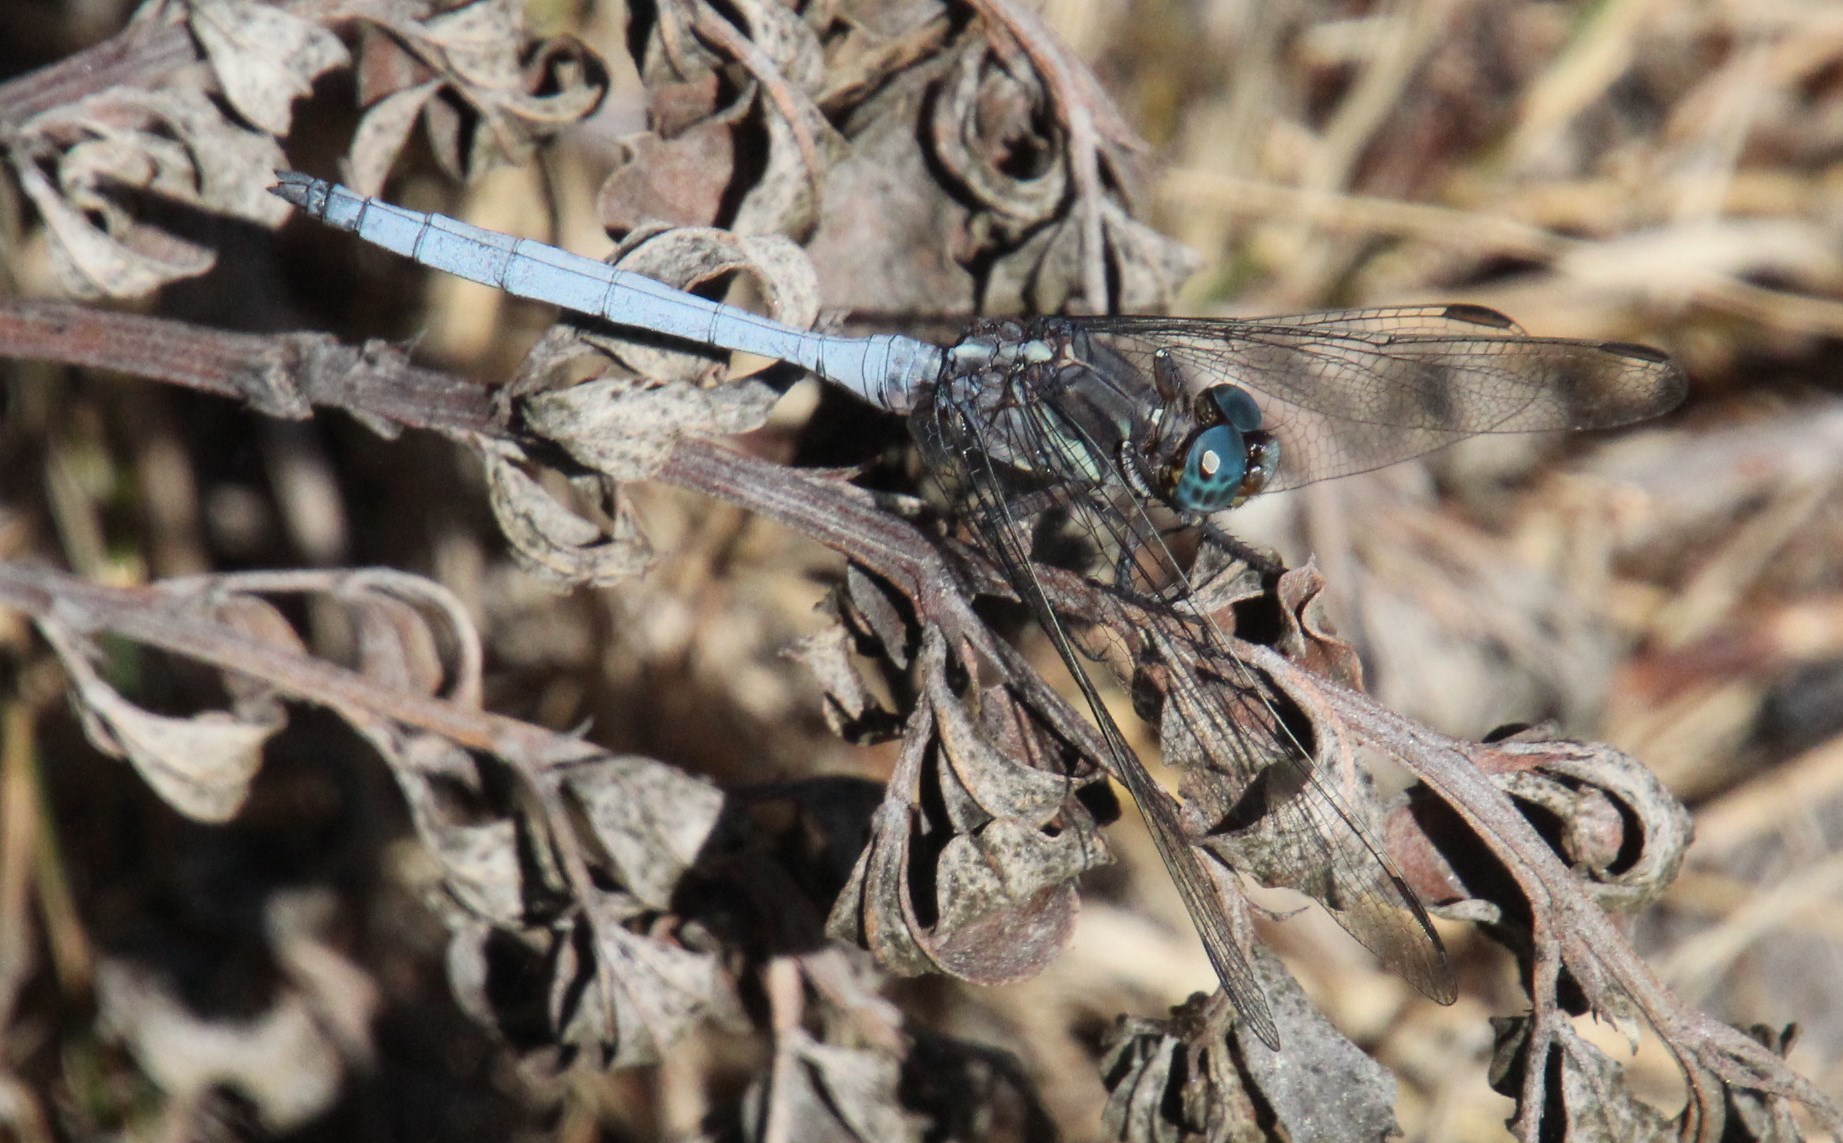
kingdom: Animalia
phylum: Arthropoda
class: Insecta
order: Odonata
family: Libellulidae
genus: Orthetrum
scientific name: Orthetrum julia
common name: Julia skimmer
